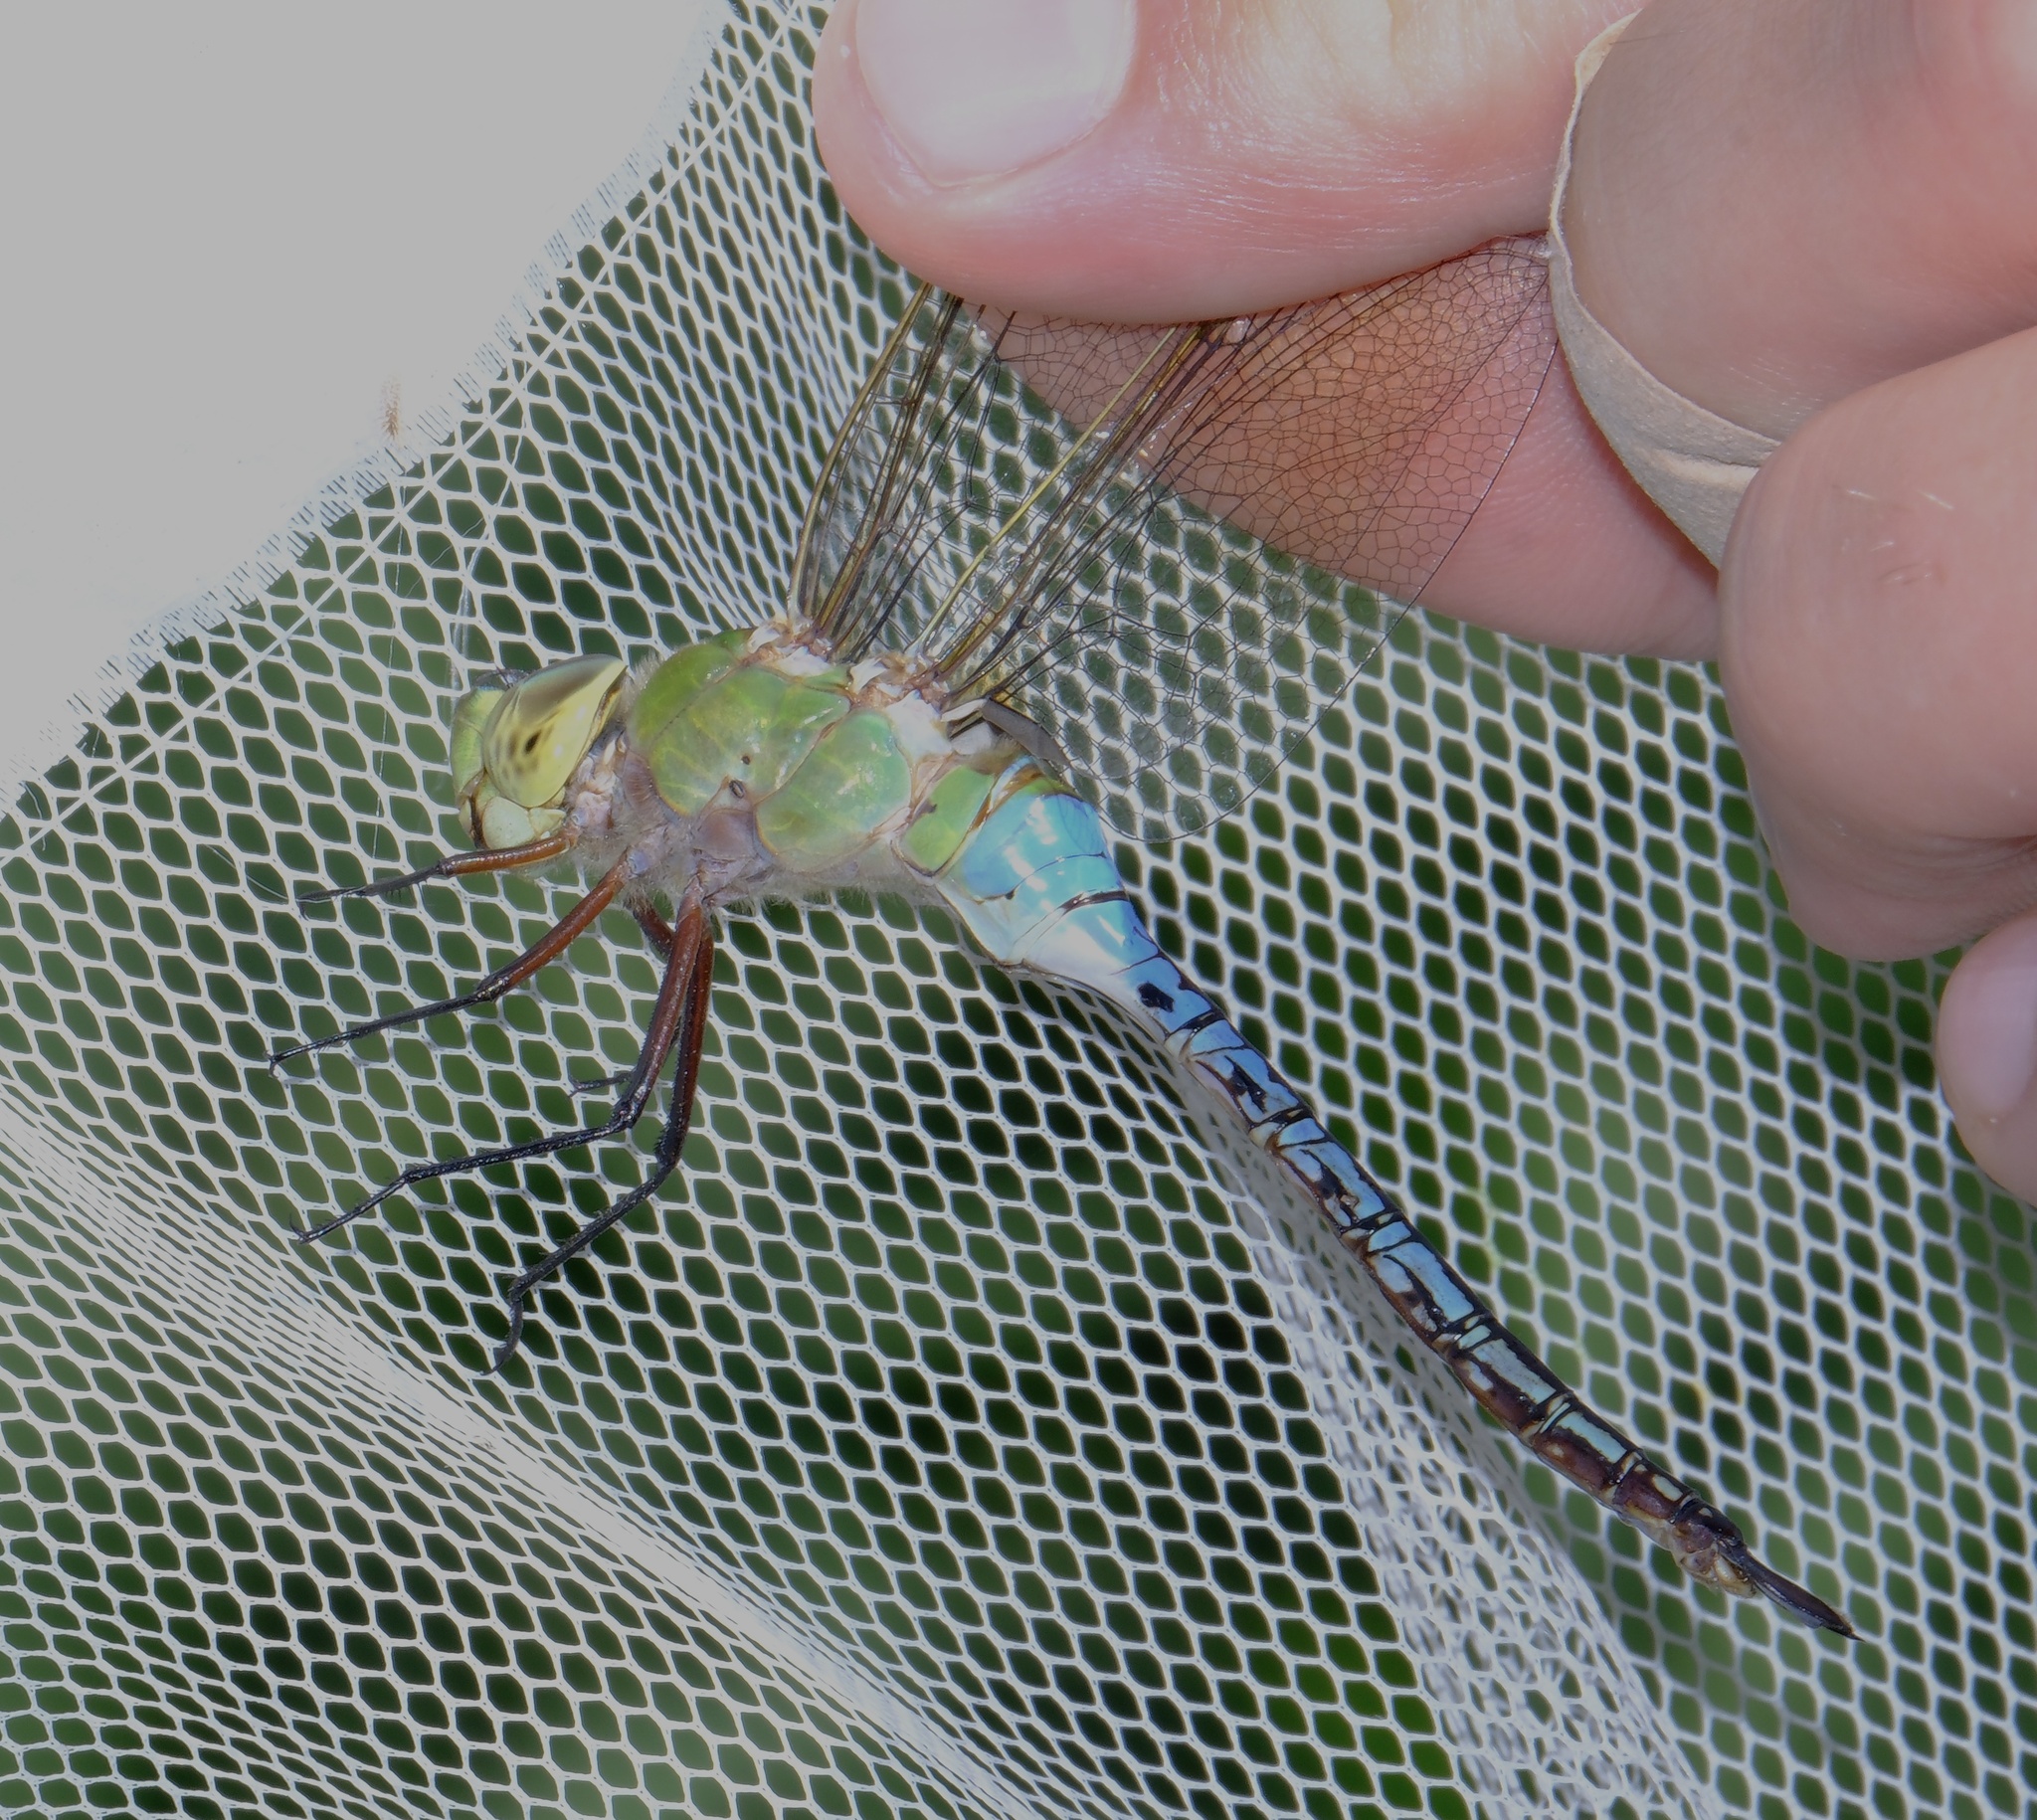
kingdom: Animalia
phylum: Arthropoda
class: Insecta
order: Odonata
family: Aeshnidae
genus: Anax
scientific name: Anax junius
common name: Common green darner
